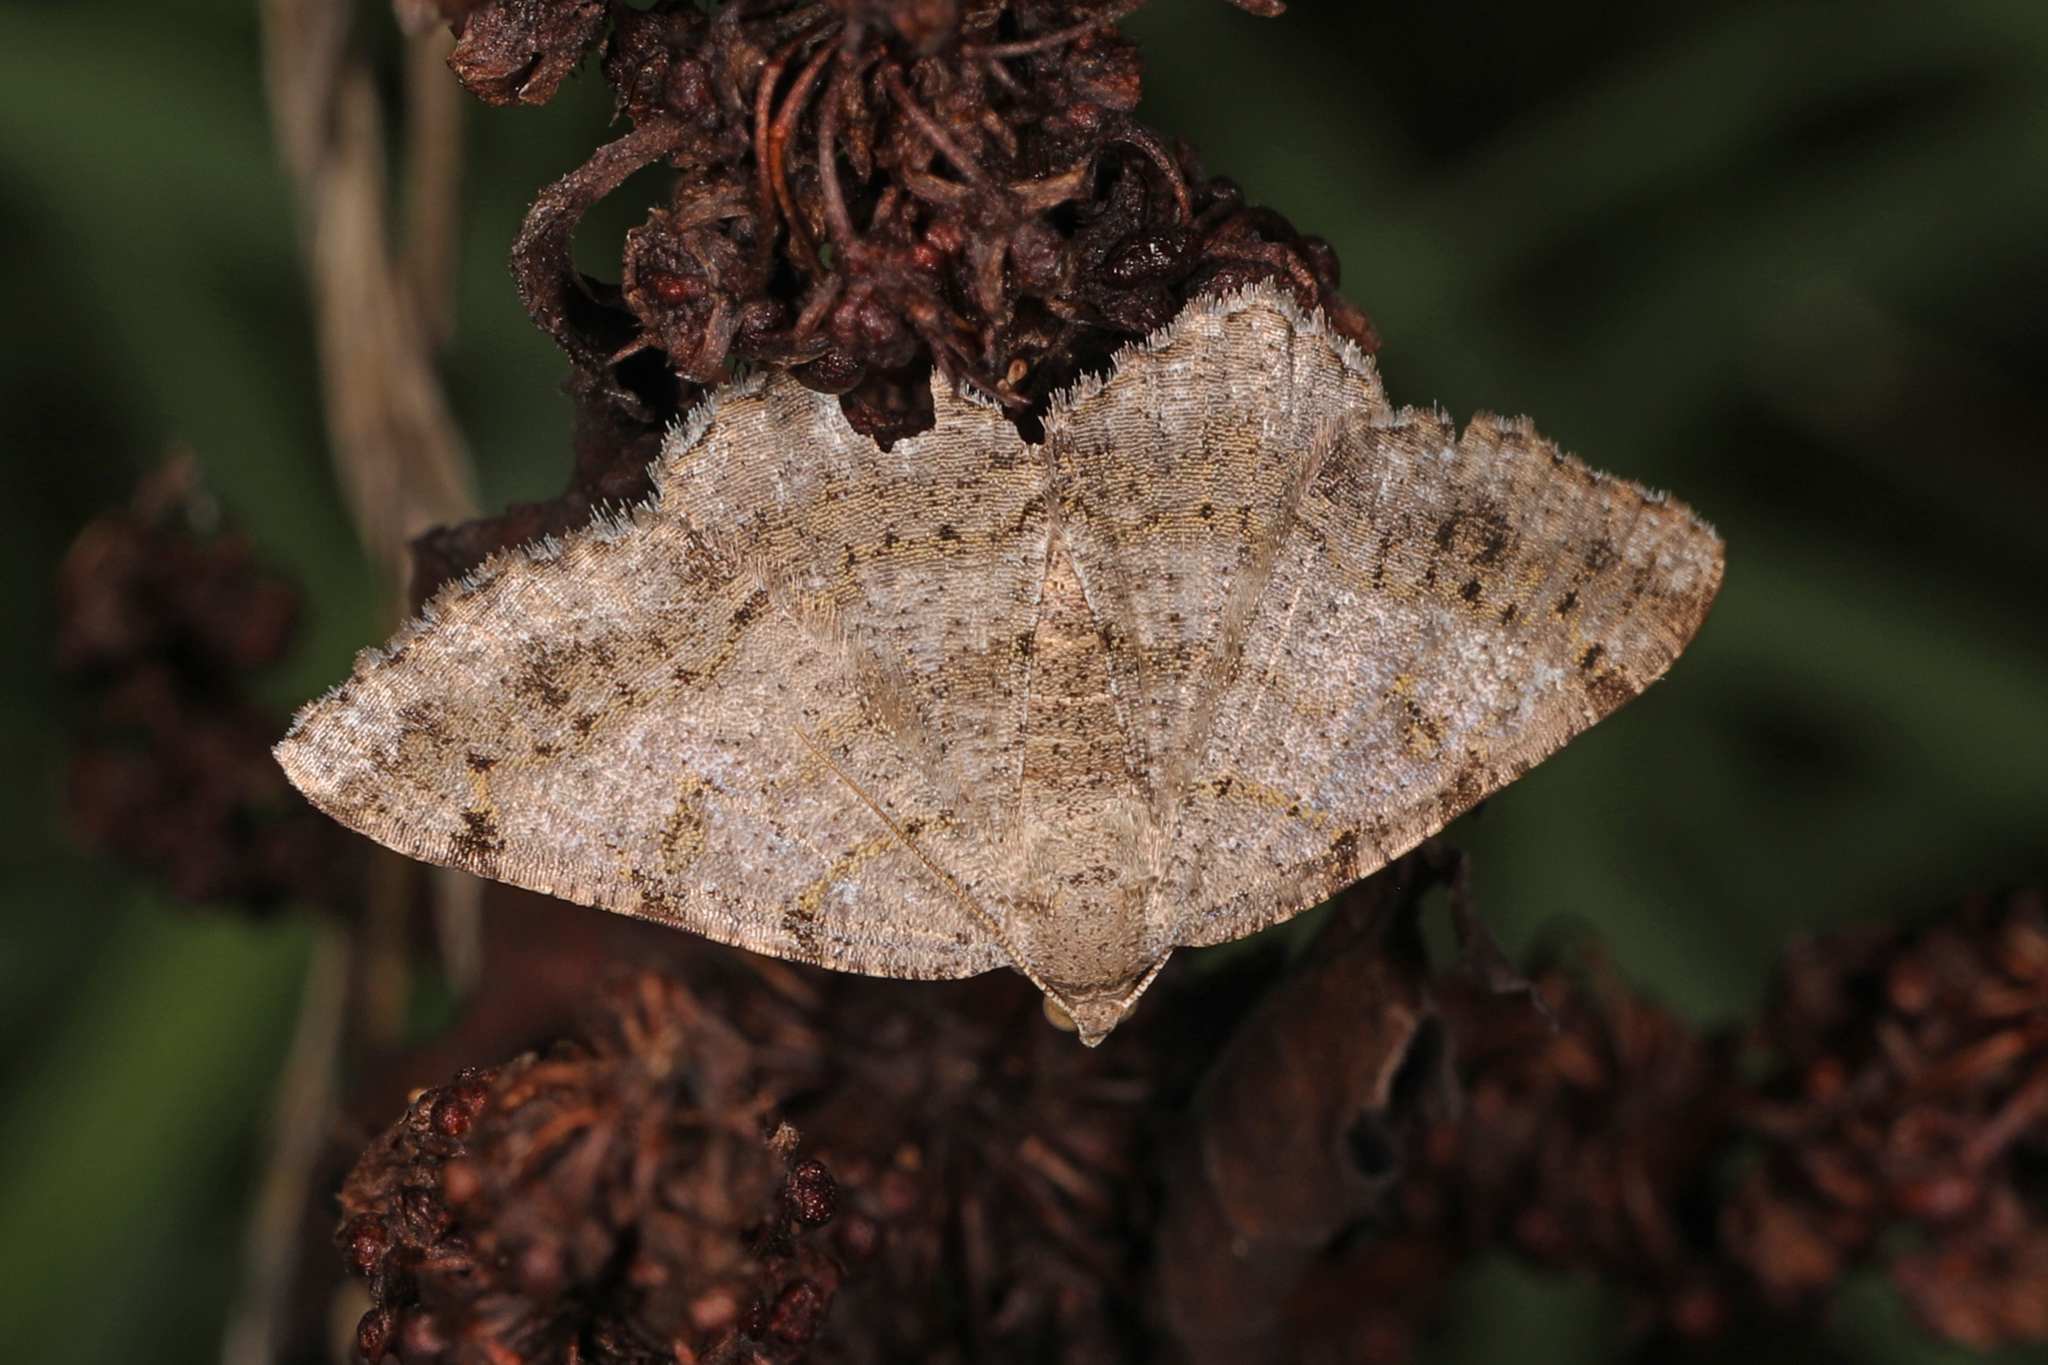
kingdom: Animalia
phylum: Arthropoda
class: Insecta
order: Lepidoptera
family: Geometridae
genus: Digrammia
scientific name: Digrammia ocellinata
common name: Faint-spotted angle
